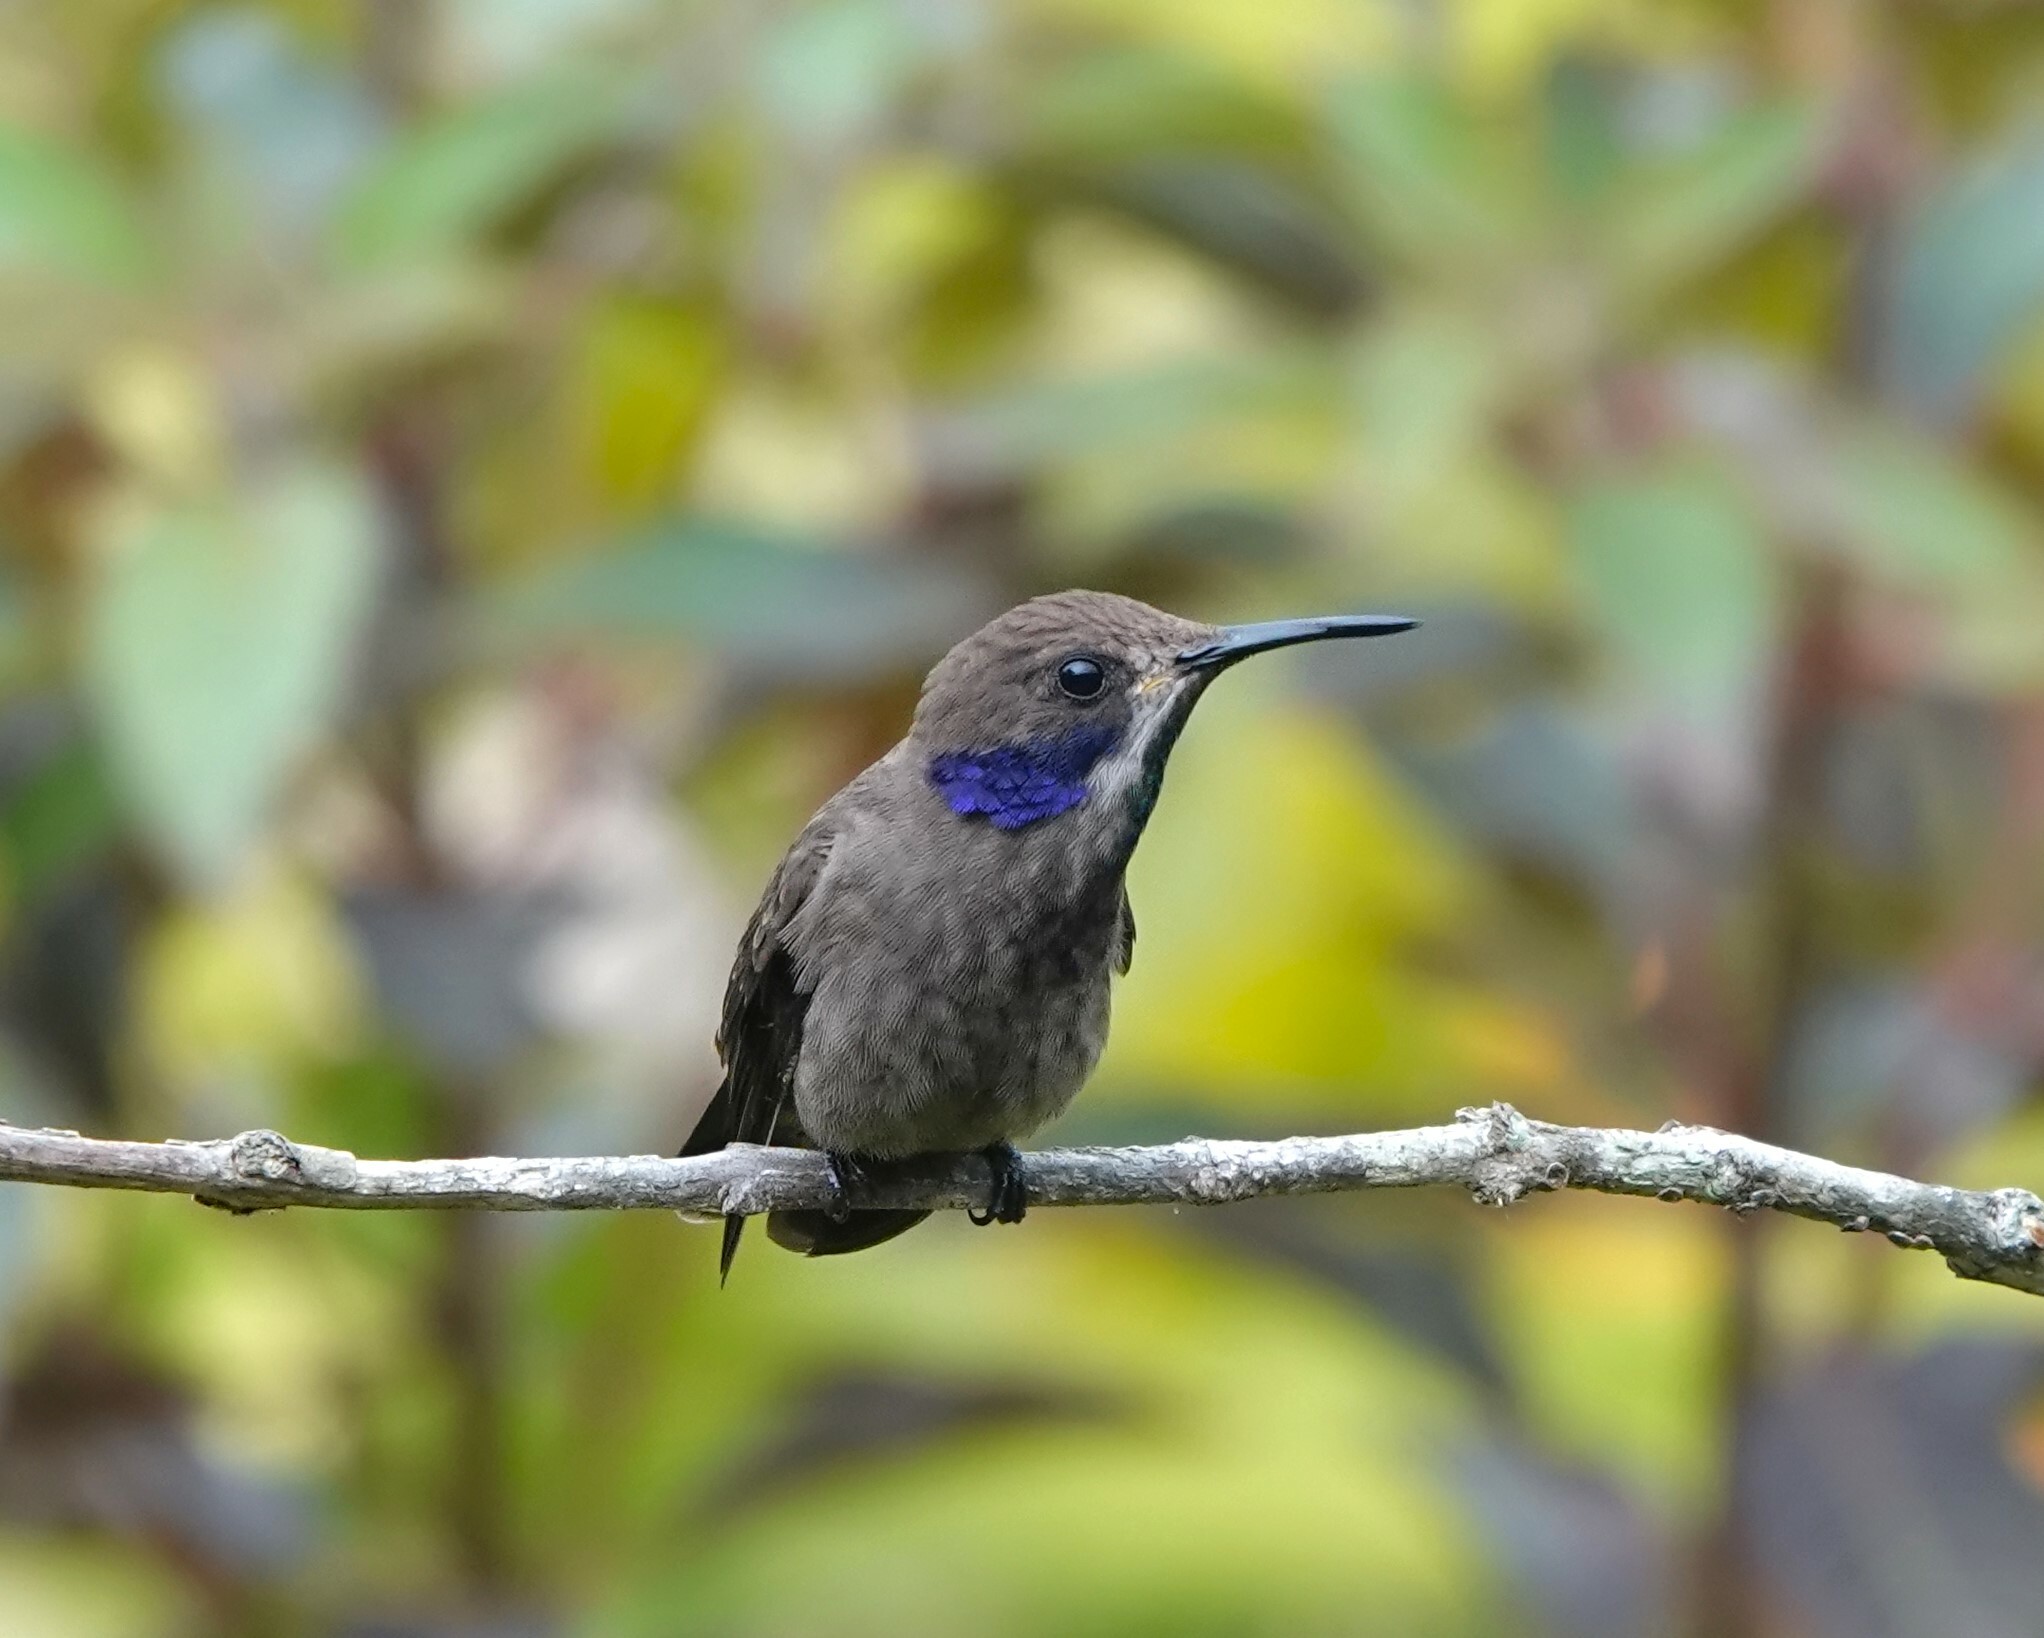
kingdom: Animalia
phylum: Chordata
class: Aves
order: Apodiformes
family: Trochilidae
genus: Colibri
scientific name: Colibri delphinae
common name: Brown violetear
